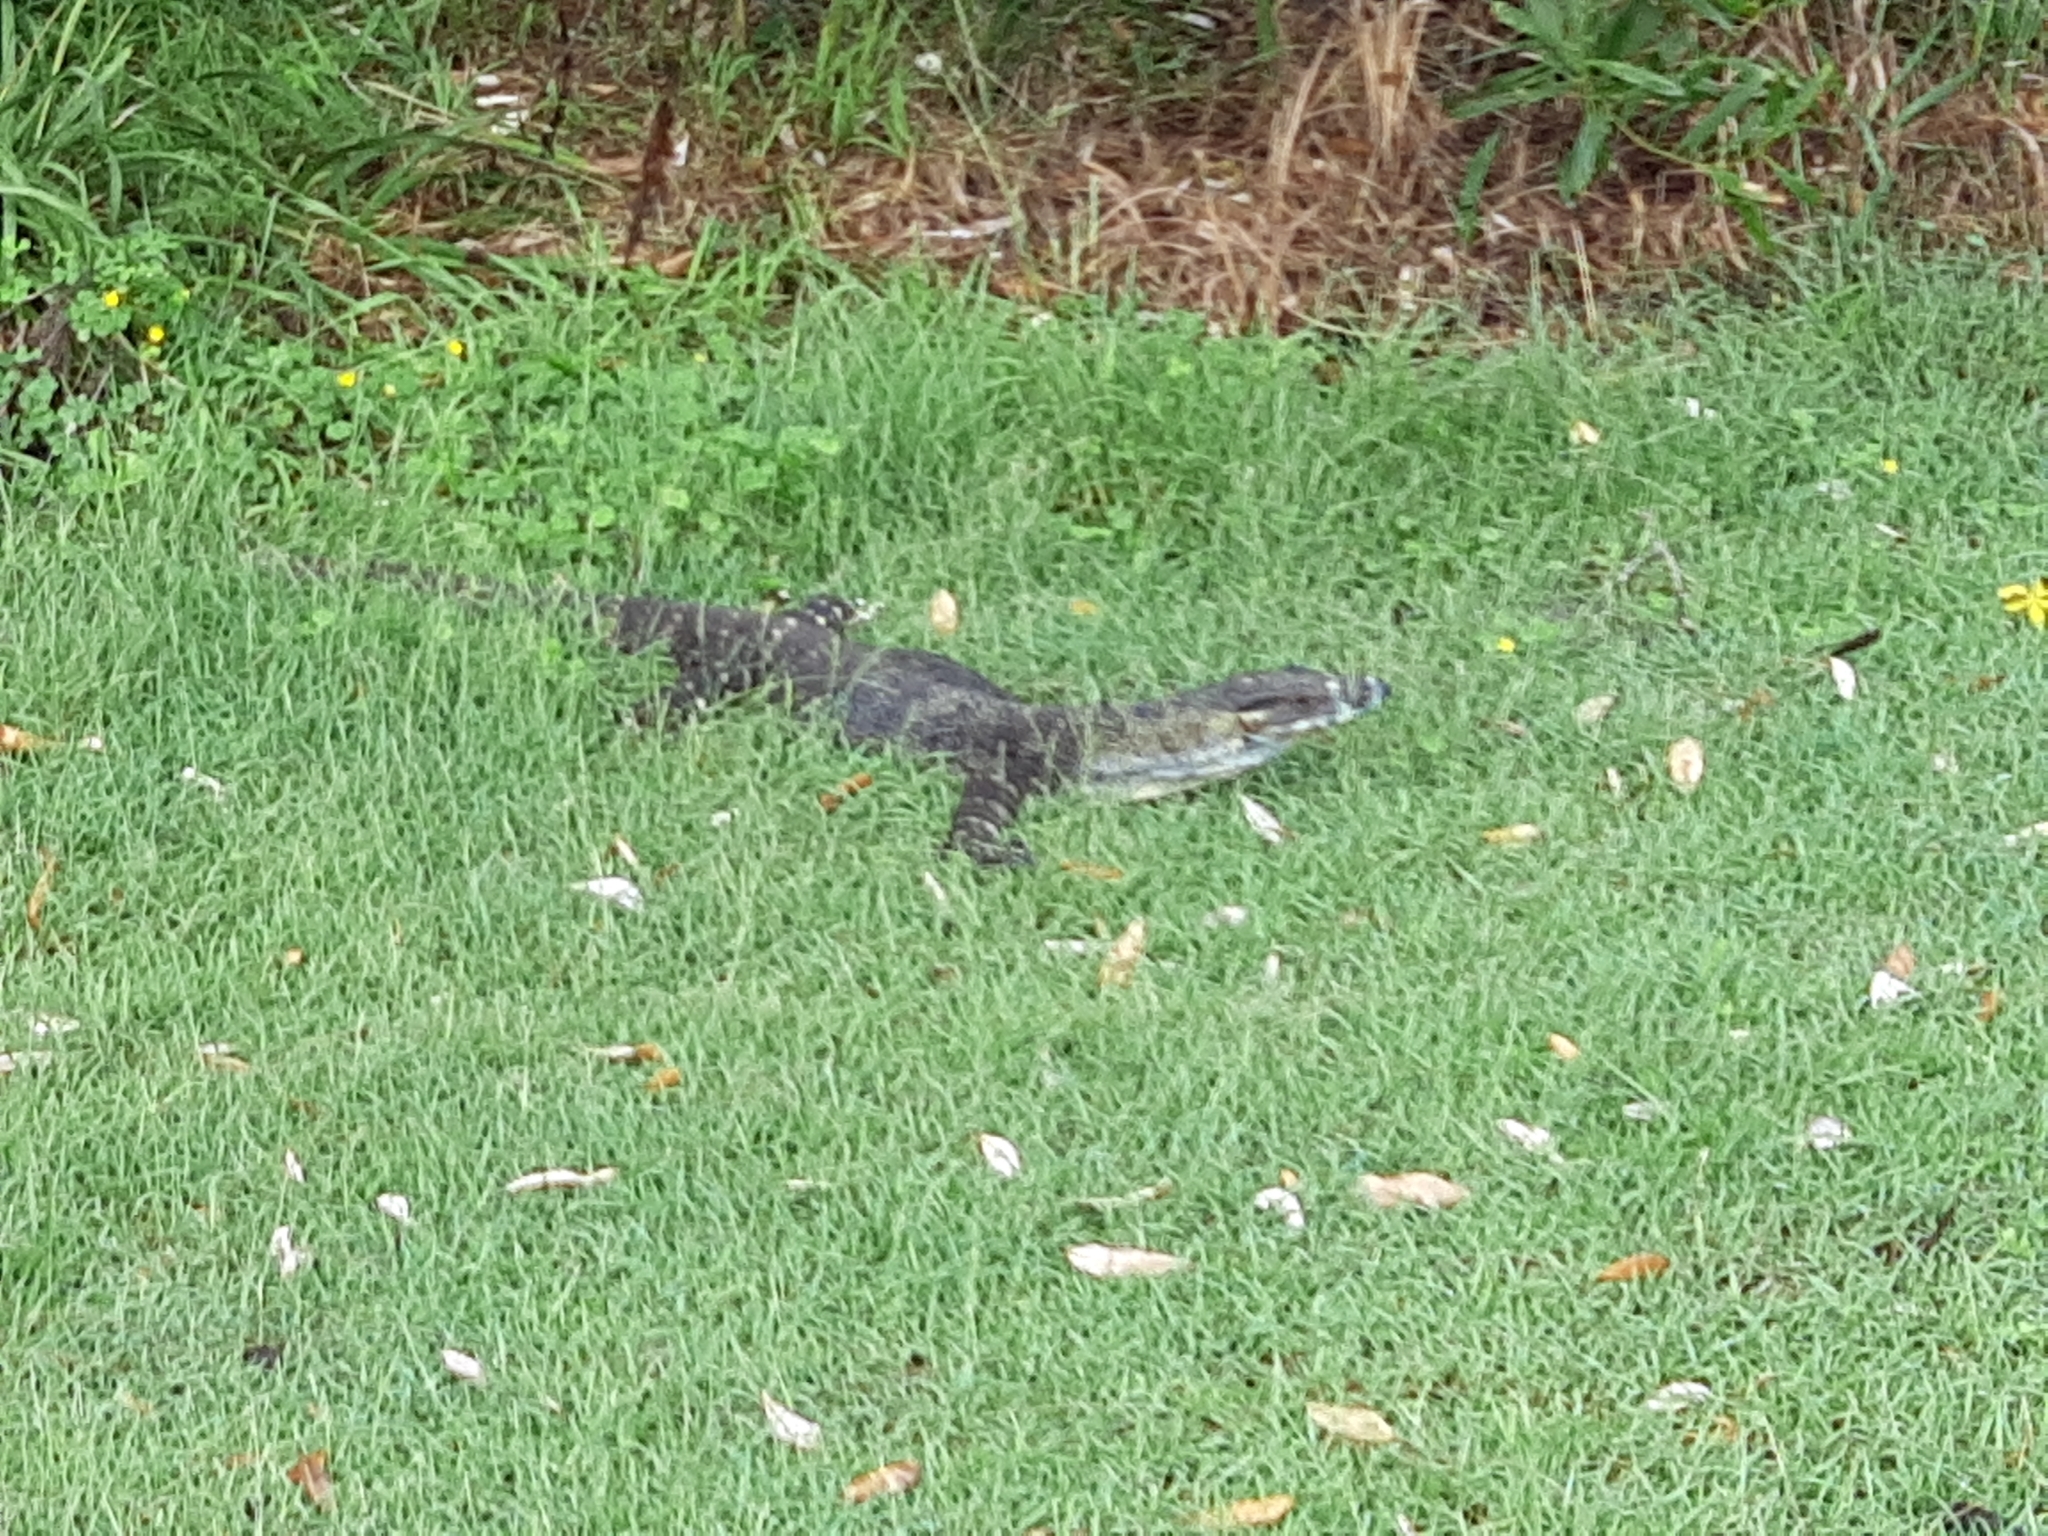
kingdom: Animalia
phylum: Chordata
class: Squamata
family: Varanidae
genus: Varanus
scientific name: Varanus varius
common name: Lace monitor
